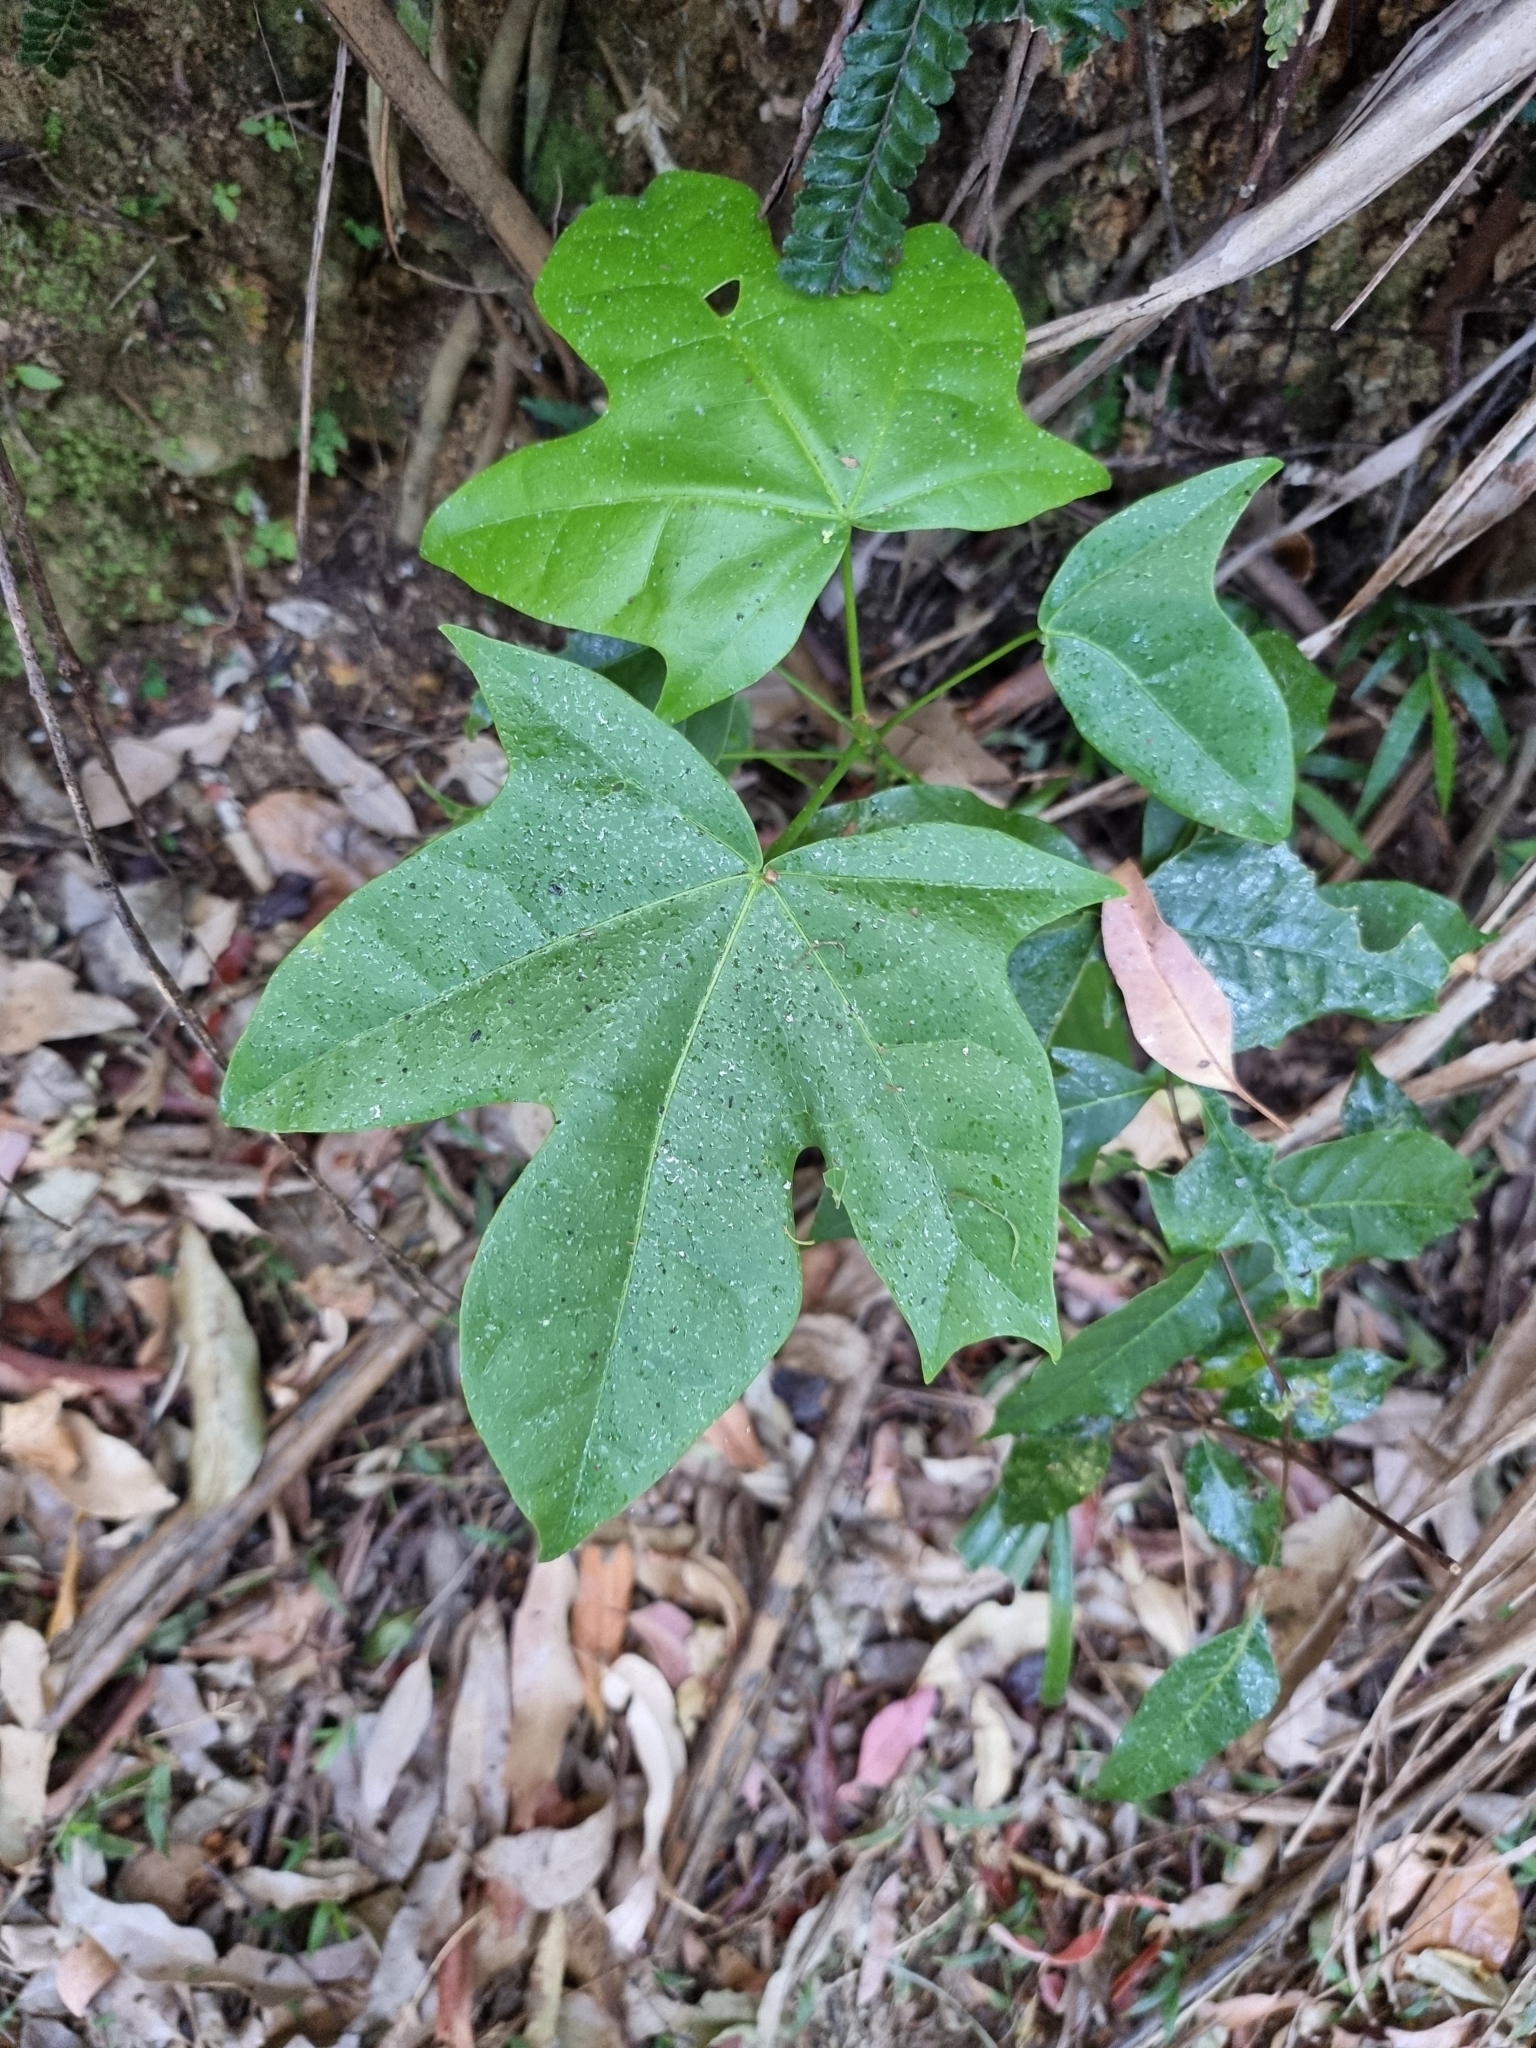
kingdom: Plantae
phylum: Tracheophyta
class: Magnoliopsida
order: Malvales
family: Malvaceae
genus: Brachychiton
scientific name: Brachychiton acerifolius
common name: Illawarra flame tree
